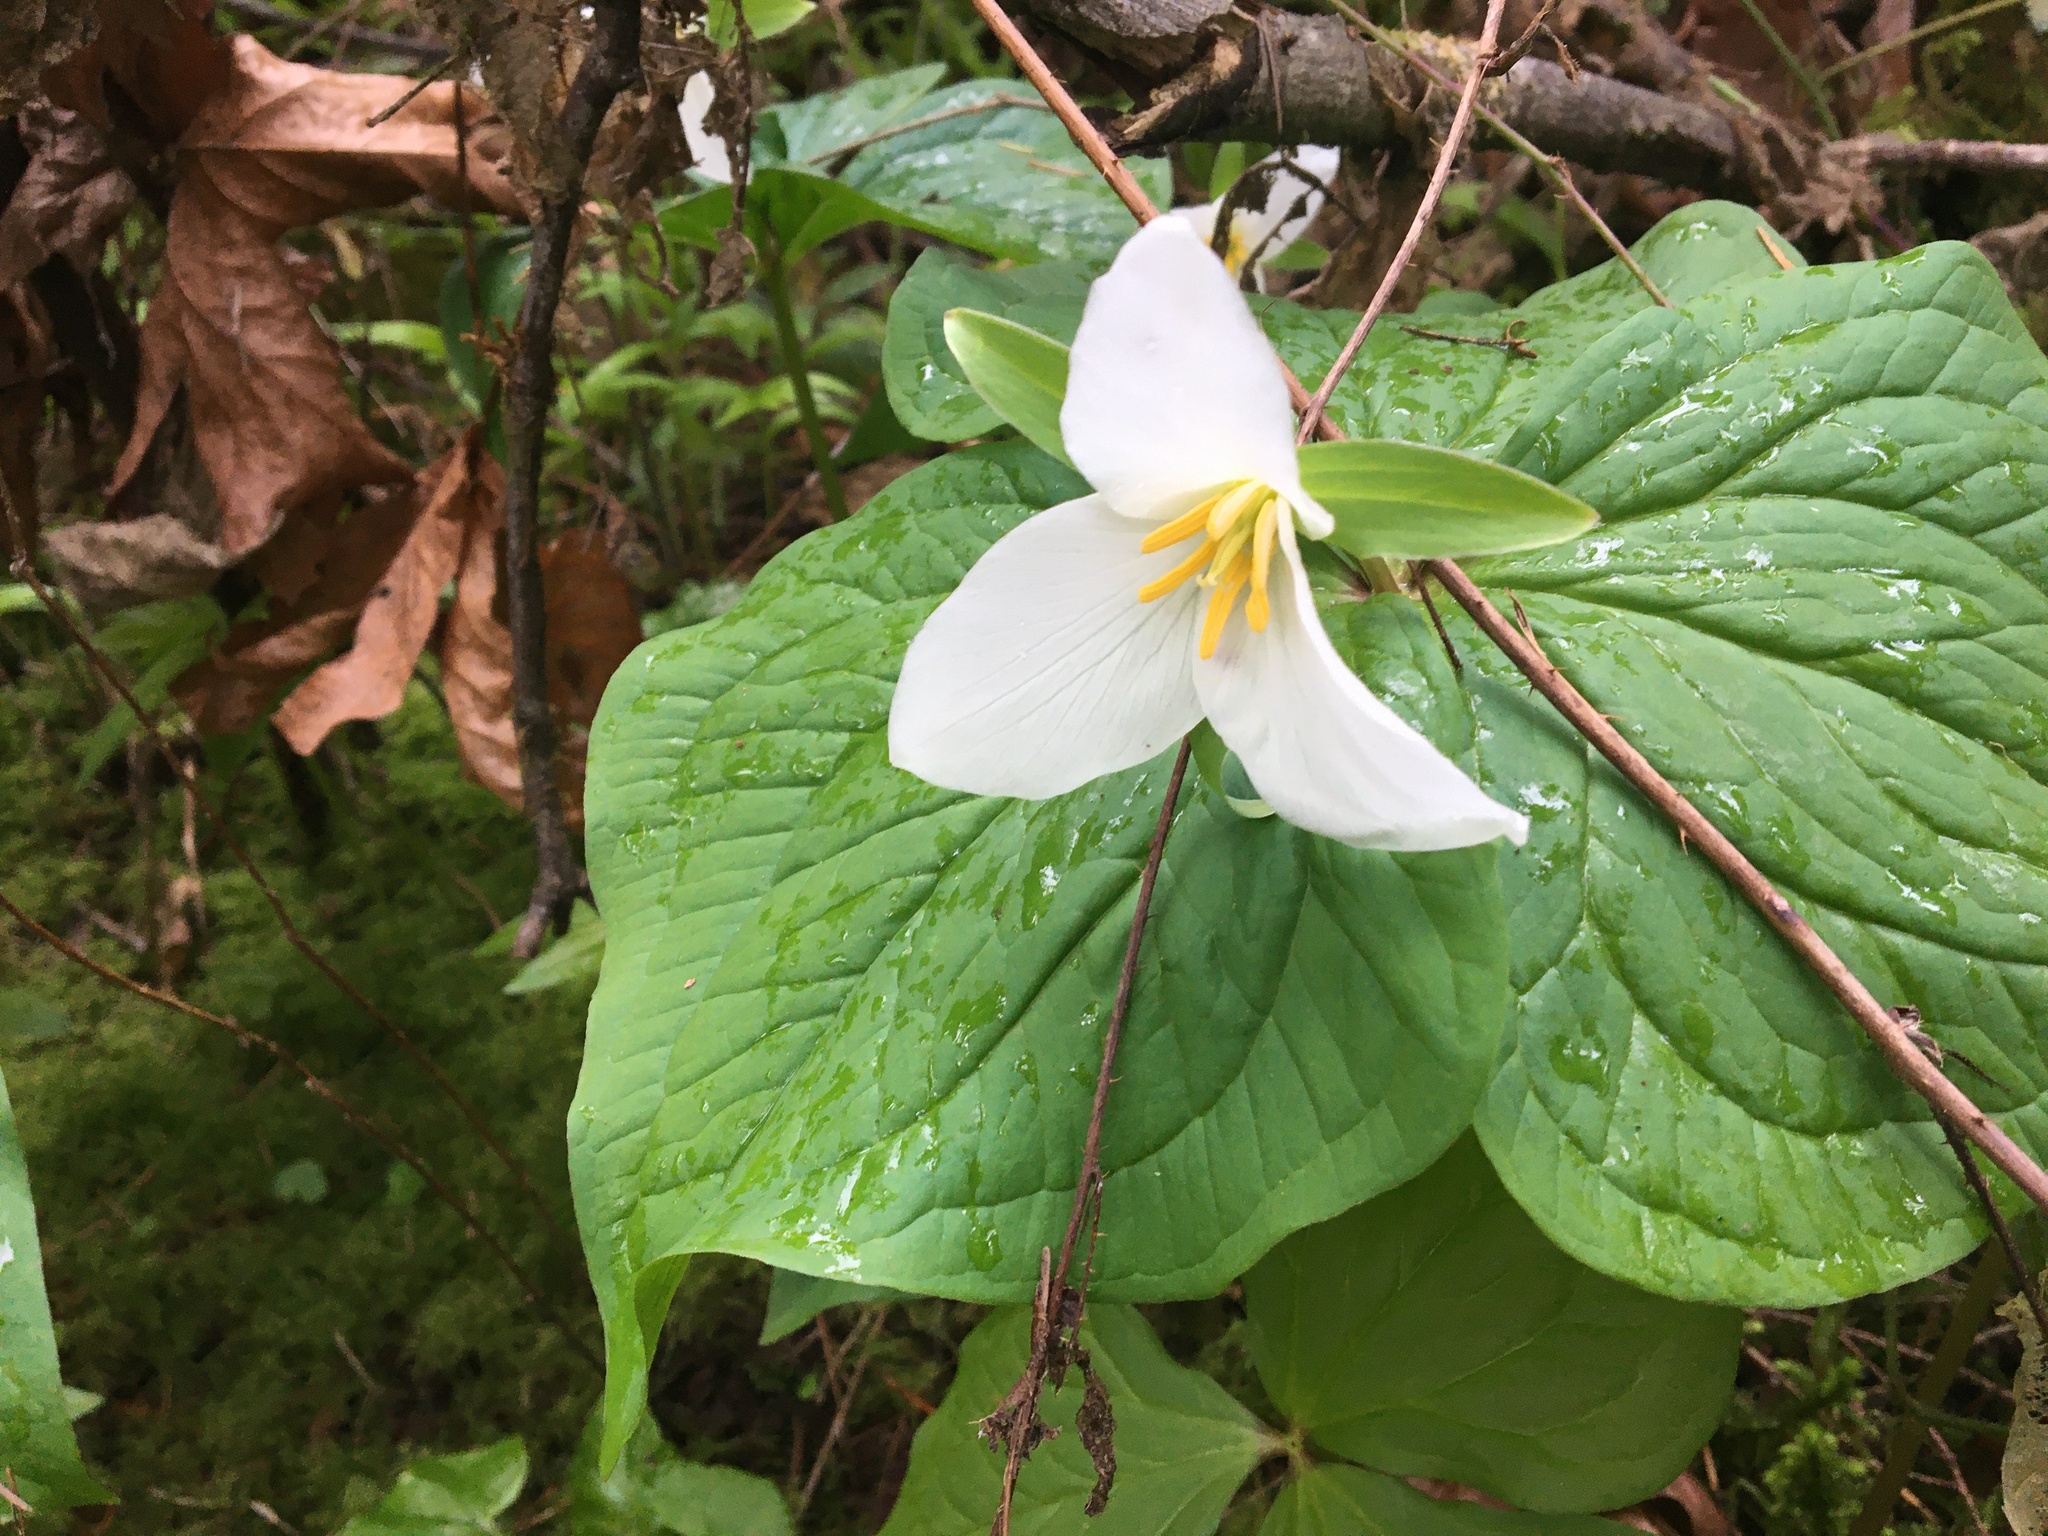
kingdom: Plantae
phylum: Tracheophyta
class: Liliopsida
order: Liliales
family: Melanthiaceae
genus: Trillium
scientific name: Trillium ovatum
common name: Pacific trillium
